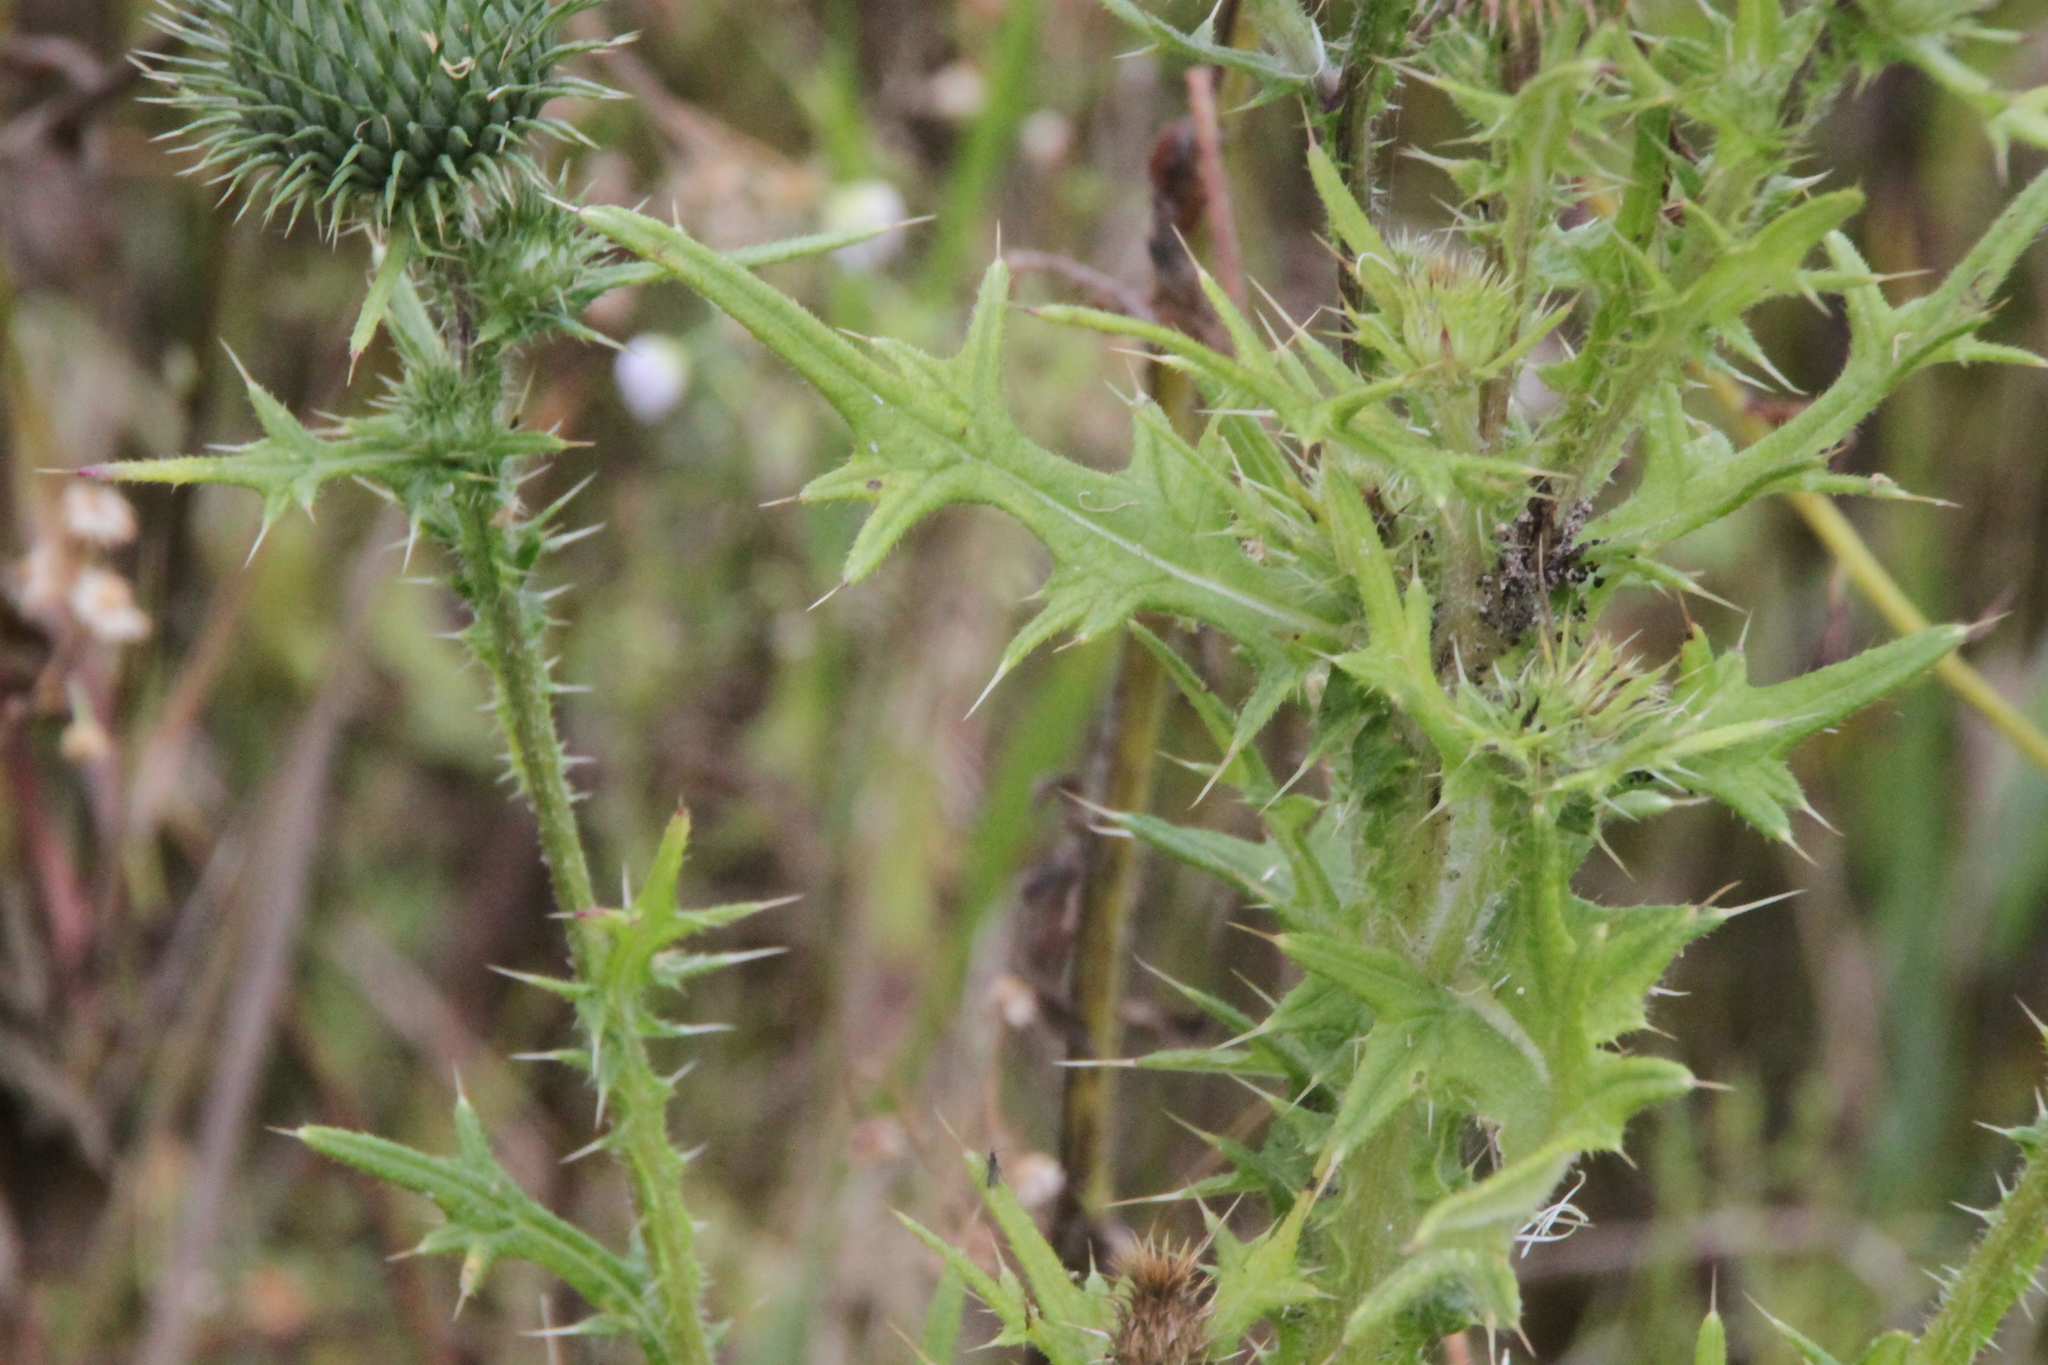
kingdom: Plantae
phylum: Tracheophyta
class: Magnoliopsida
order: Asterales
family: Asteraceae
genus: Cirsium
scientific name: Cirsium vulgare
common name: Bull thistle
